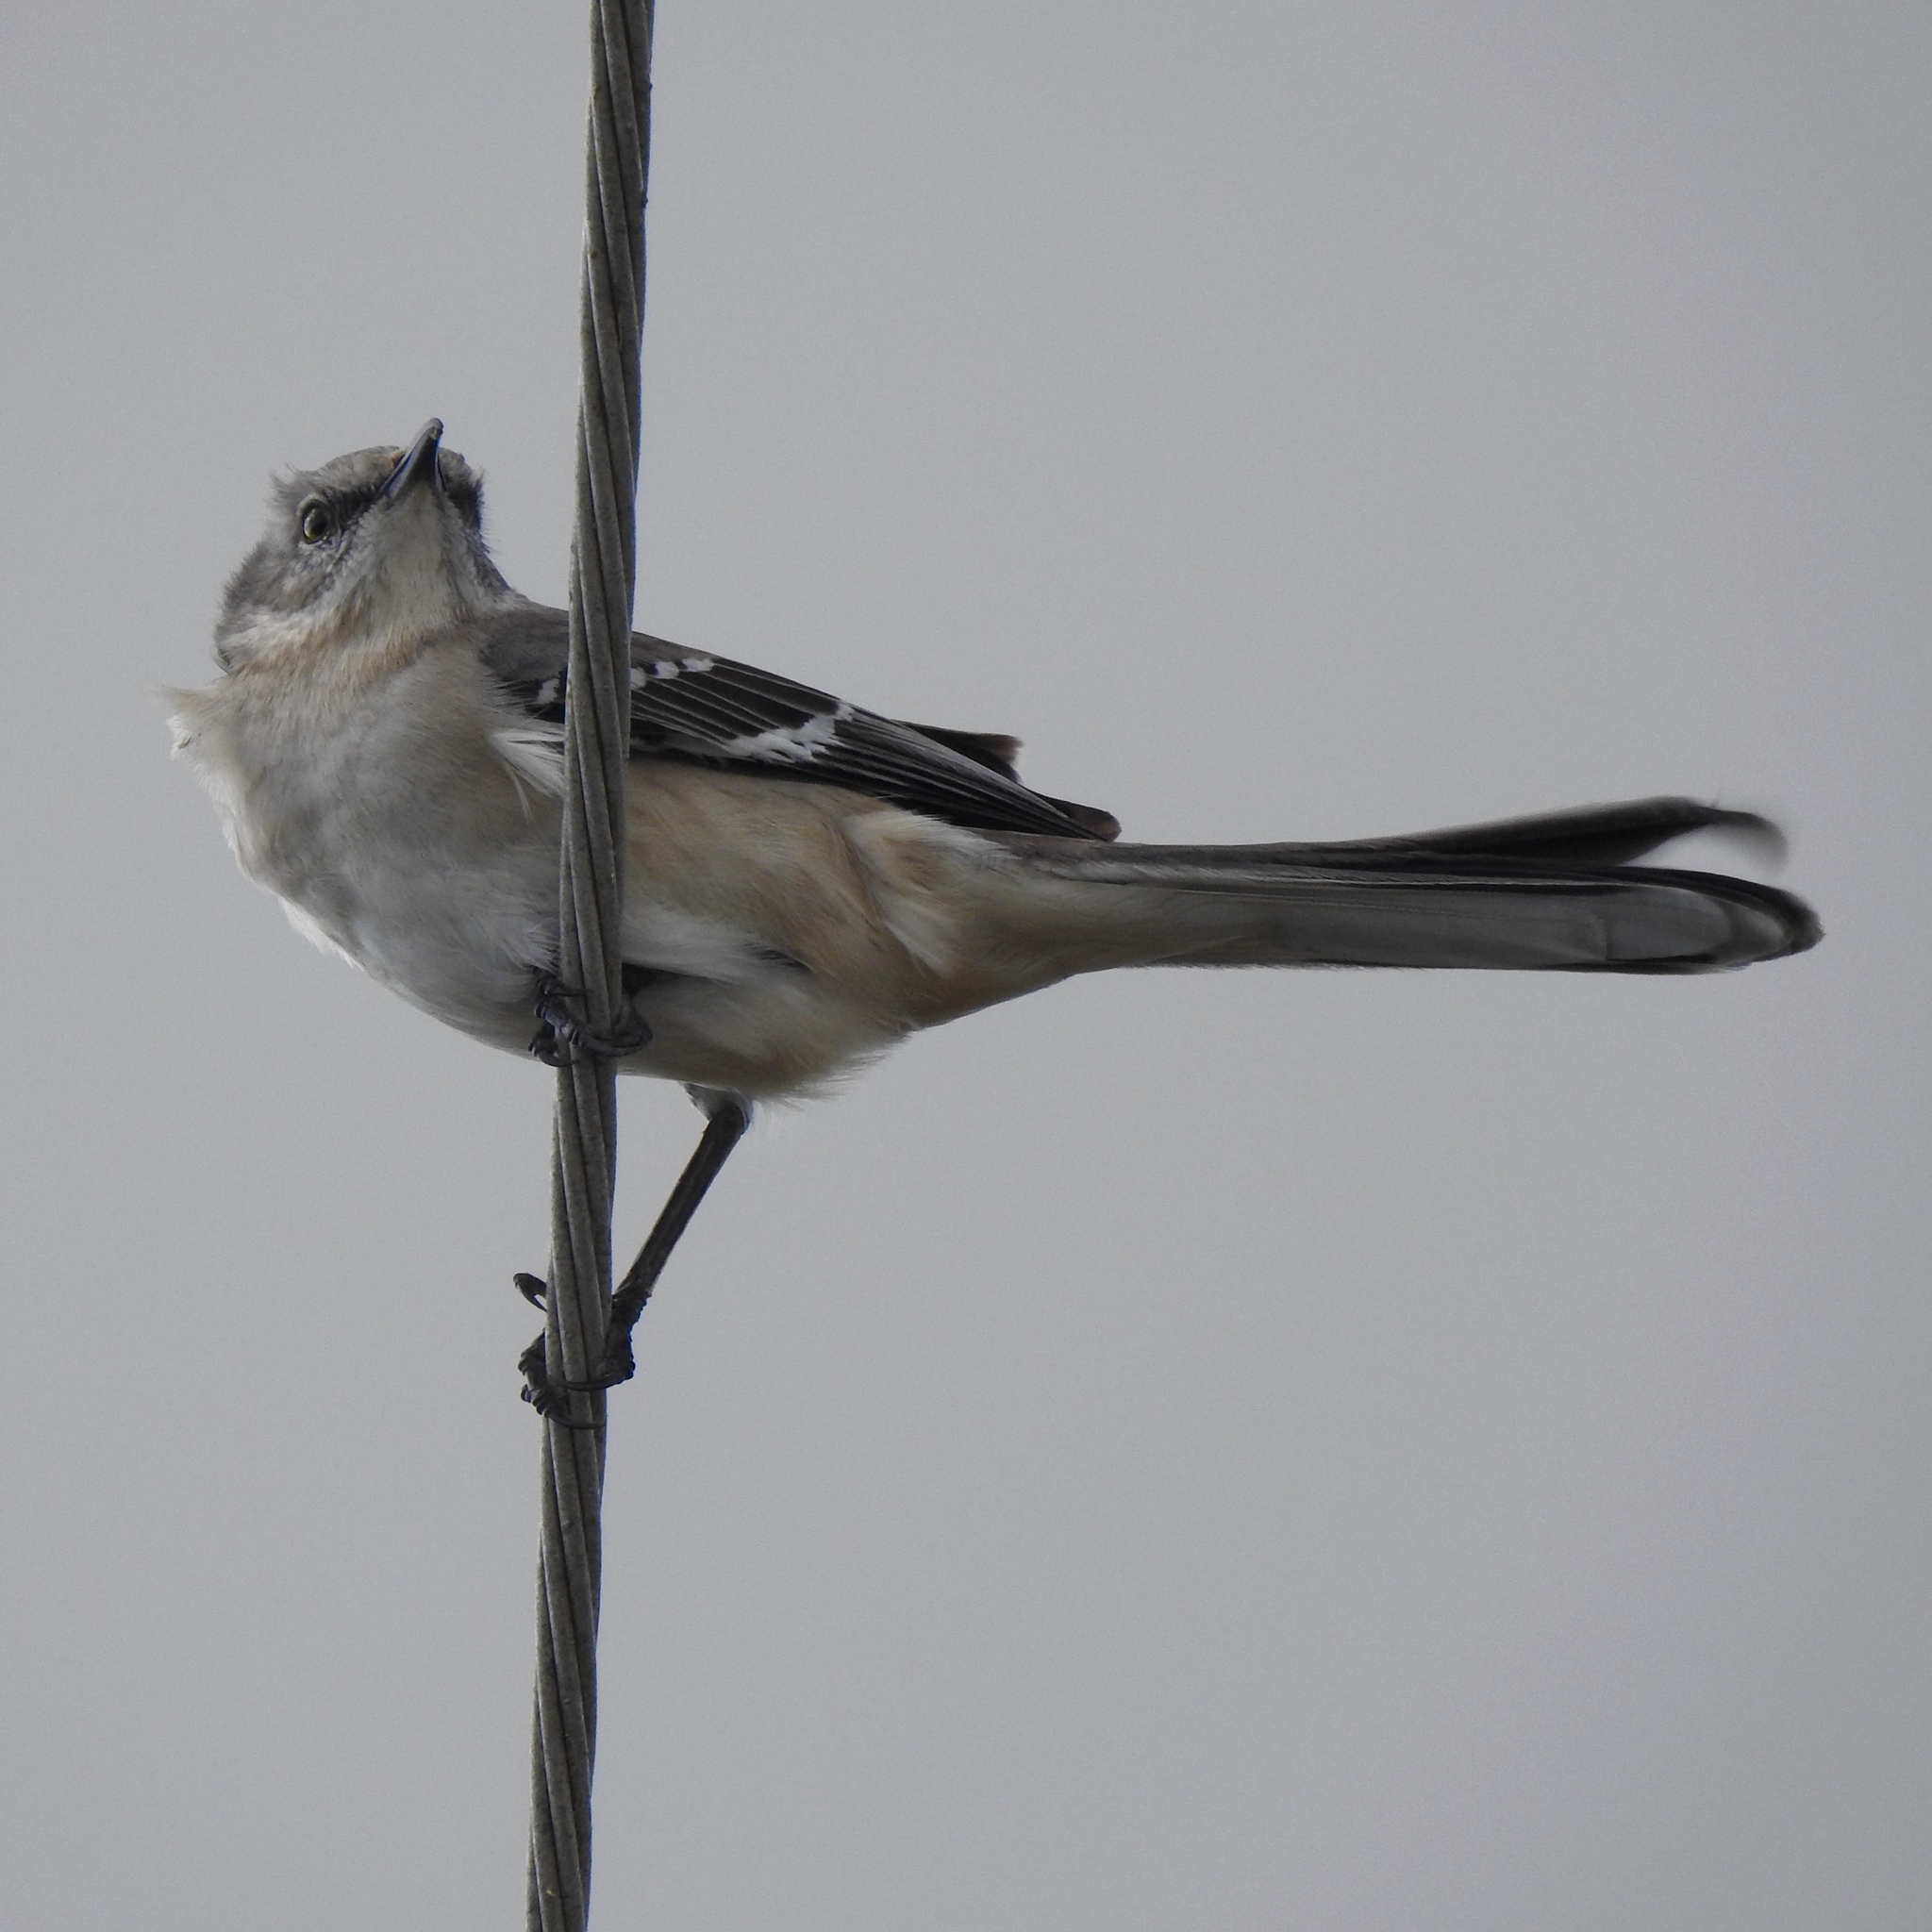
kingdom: Animalia
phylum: Chordata
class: Aves
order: Passeriformes
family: Mimidae
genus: Mimus
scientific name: Mimus polyglottos
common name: Northern mockingbird
